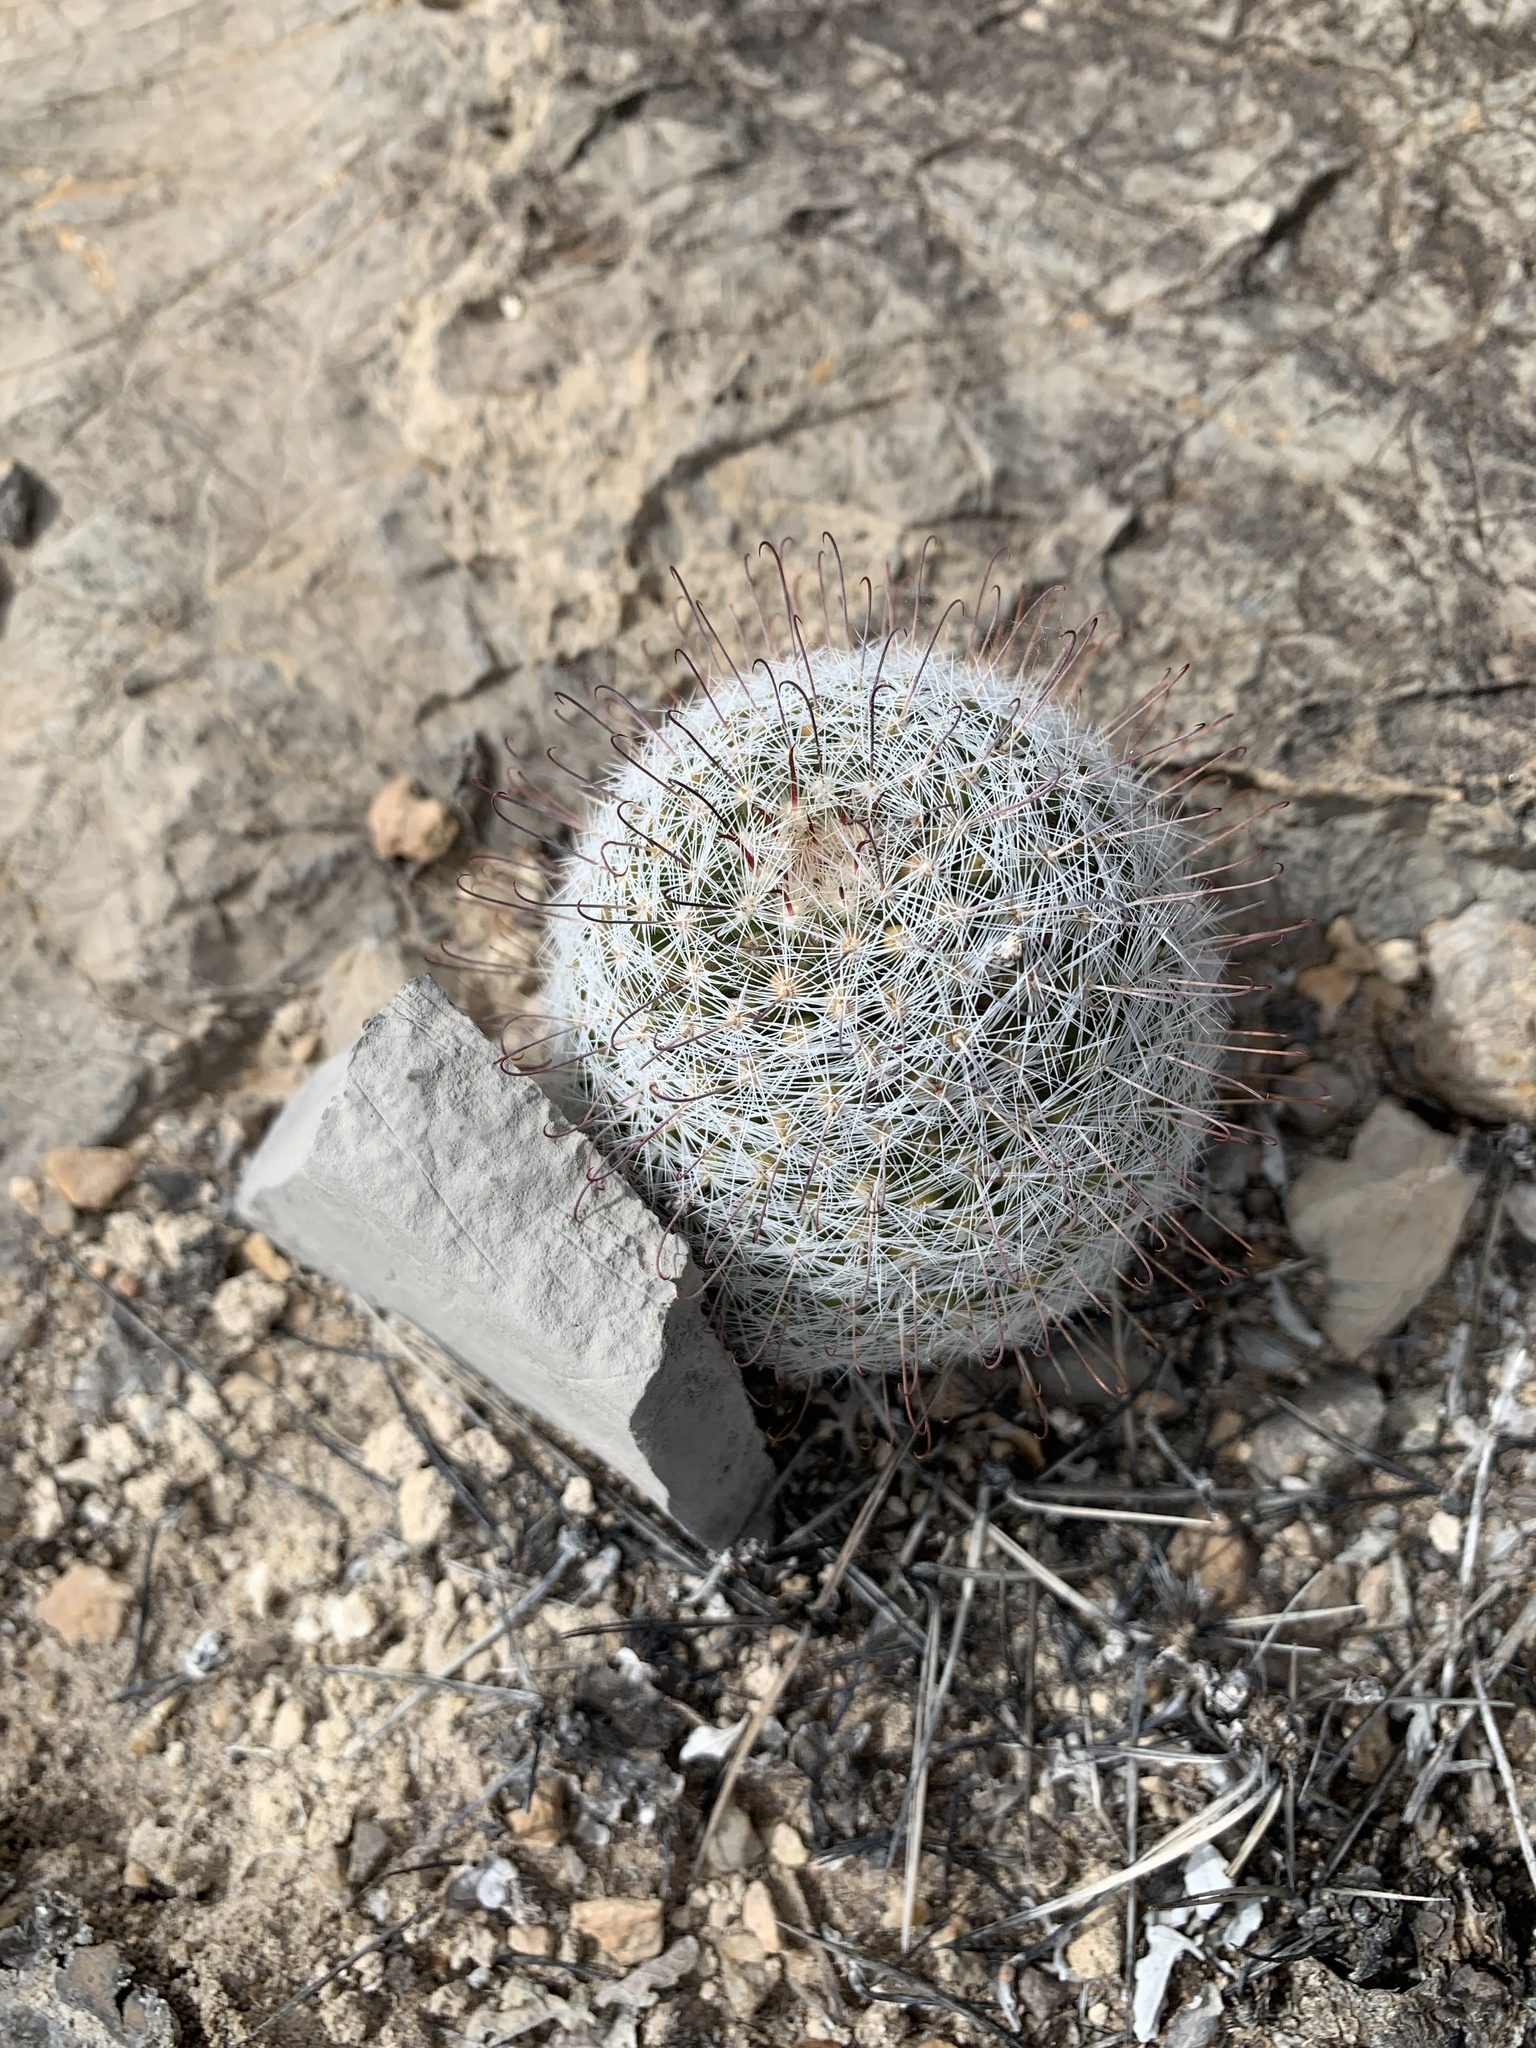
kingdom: Plantae
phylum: Tracheophyta
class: Magnoliopsida
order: Caryophyllales
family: Cactaceae
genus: Cochemiea
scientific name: Cochemiea grahamii
